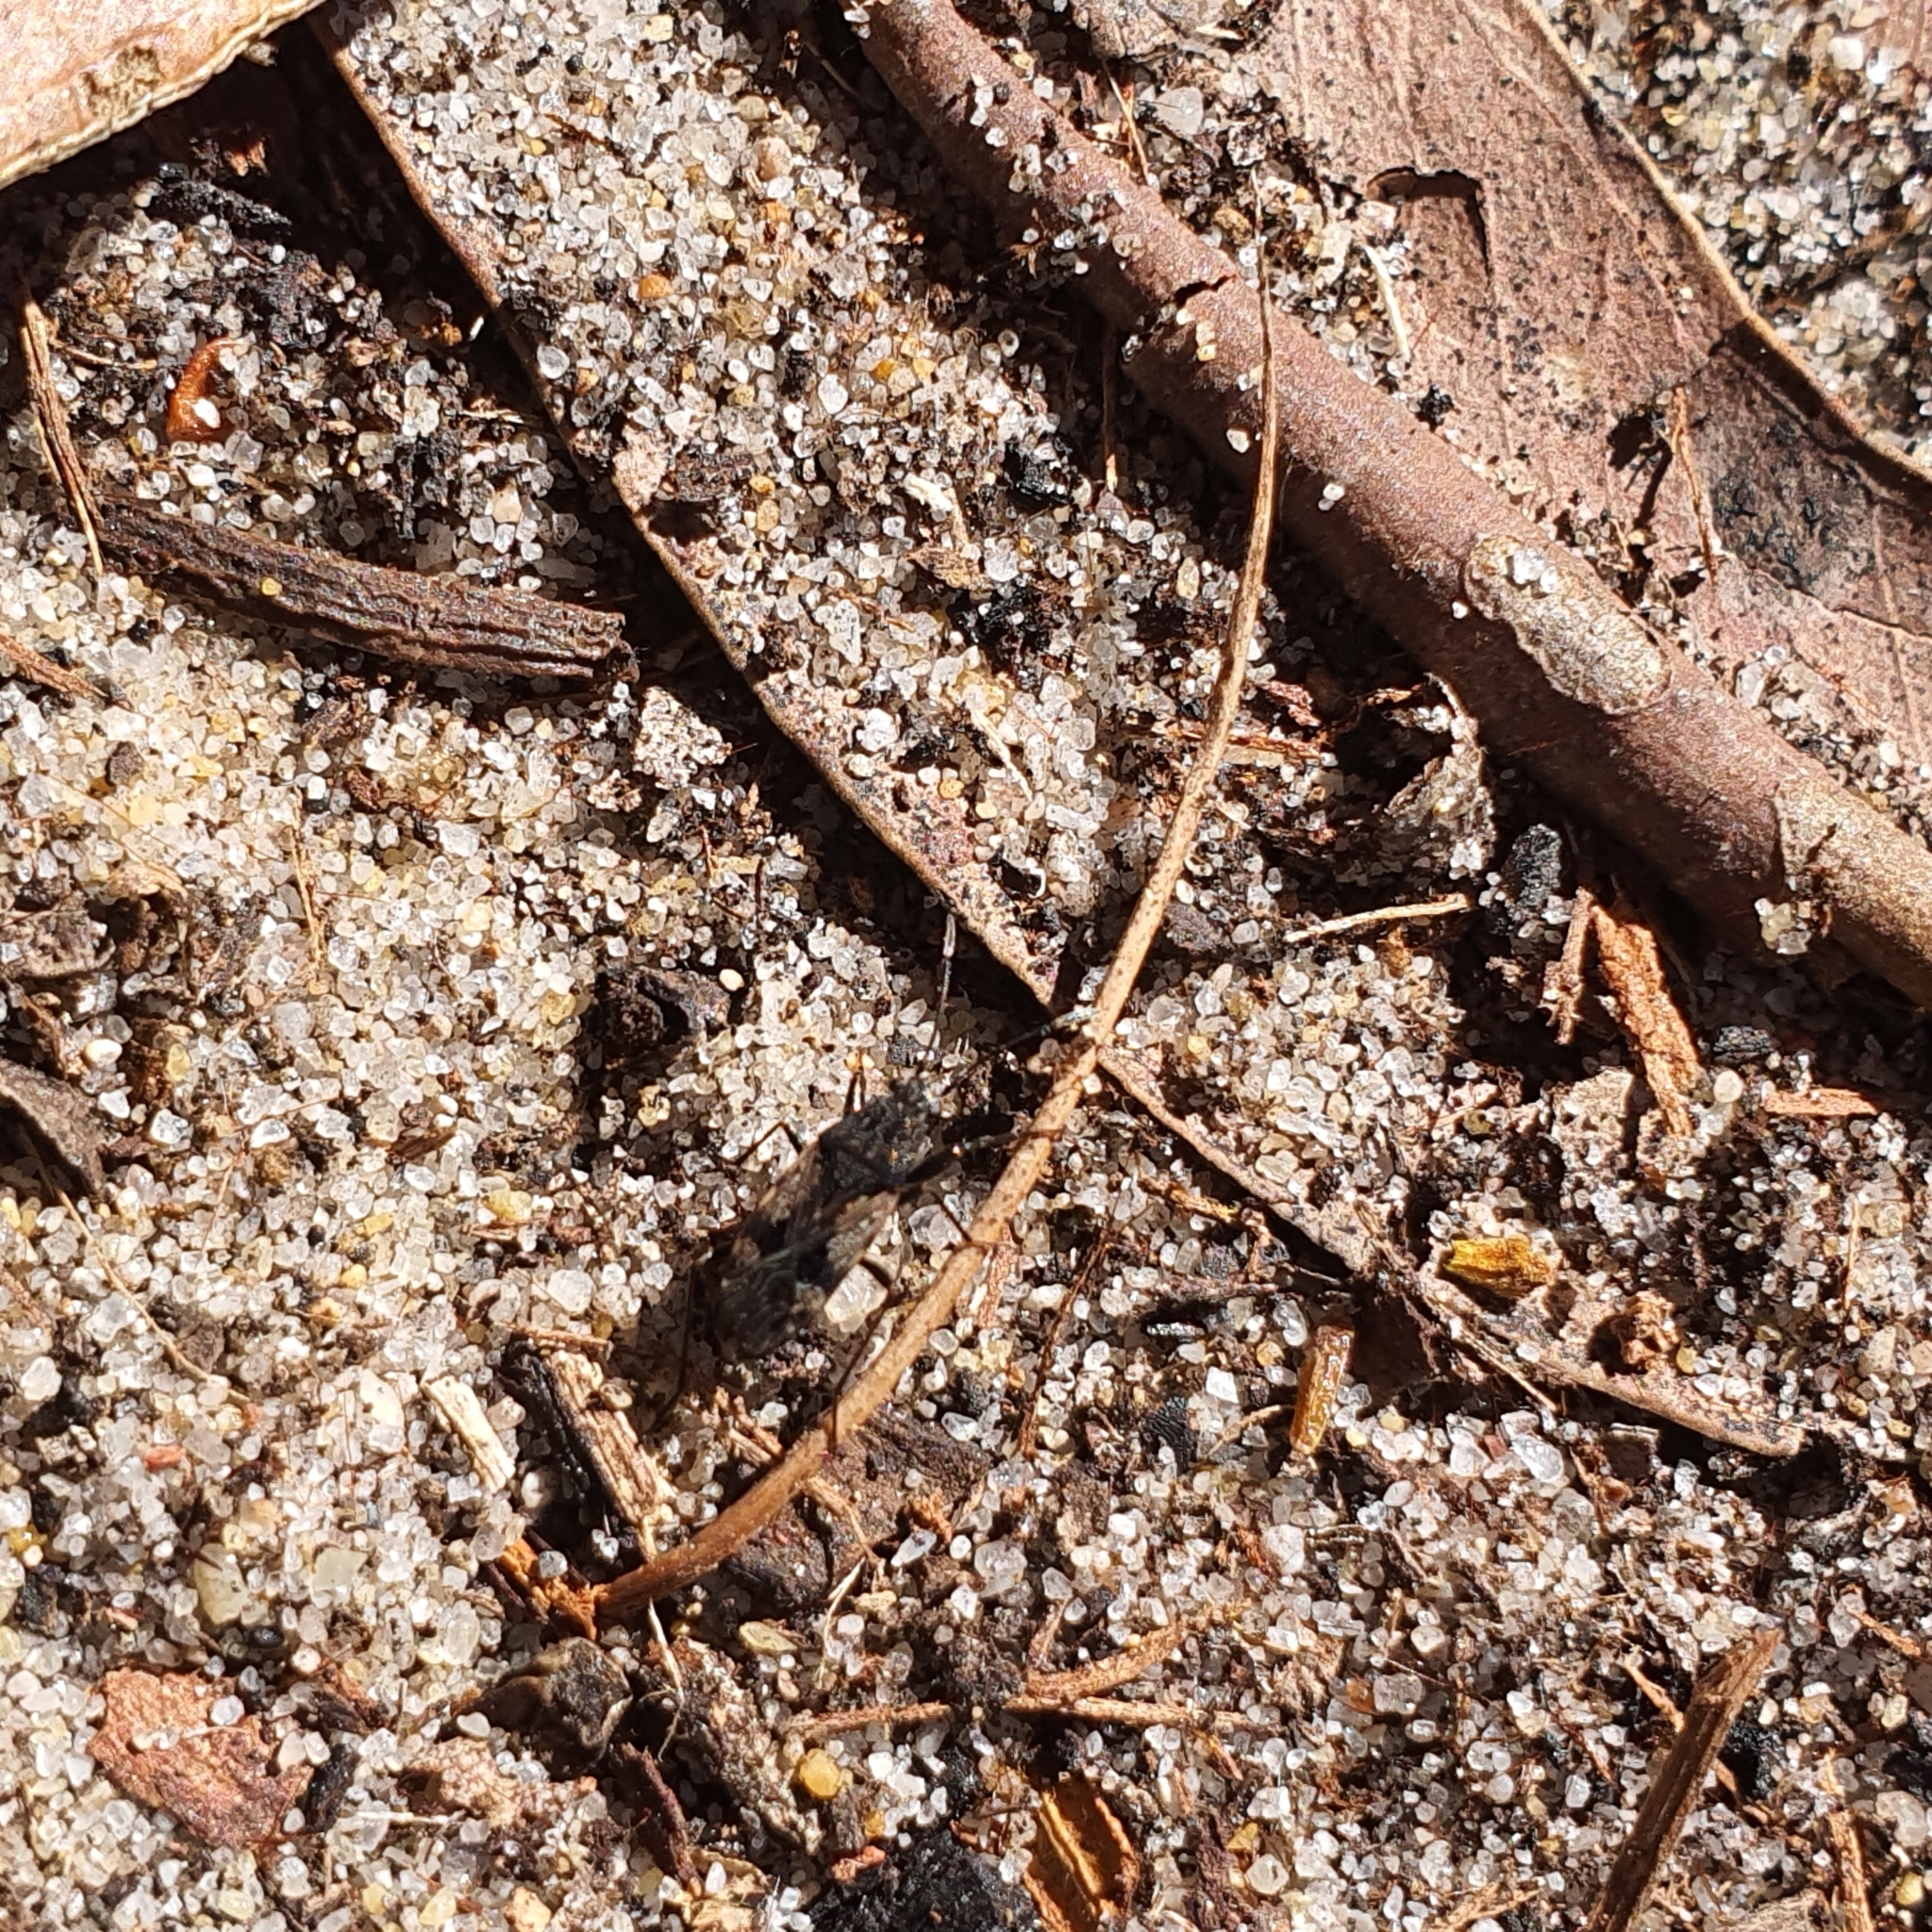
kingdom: Animalia
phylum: Arthropoda
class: Insecta
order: Hemiptera
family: Rhyparochromidae
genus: Euander
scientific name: Euander lacertosus
